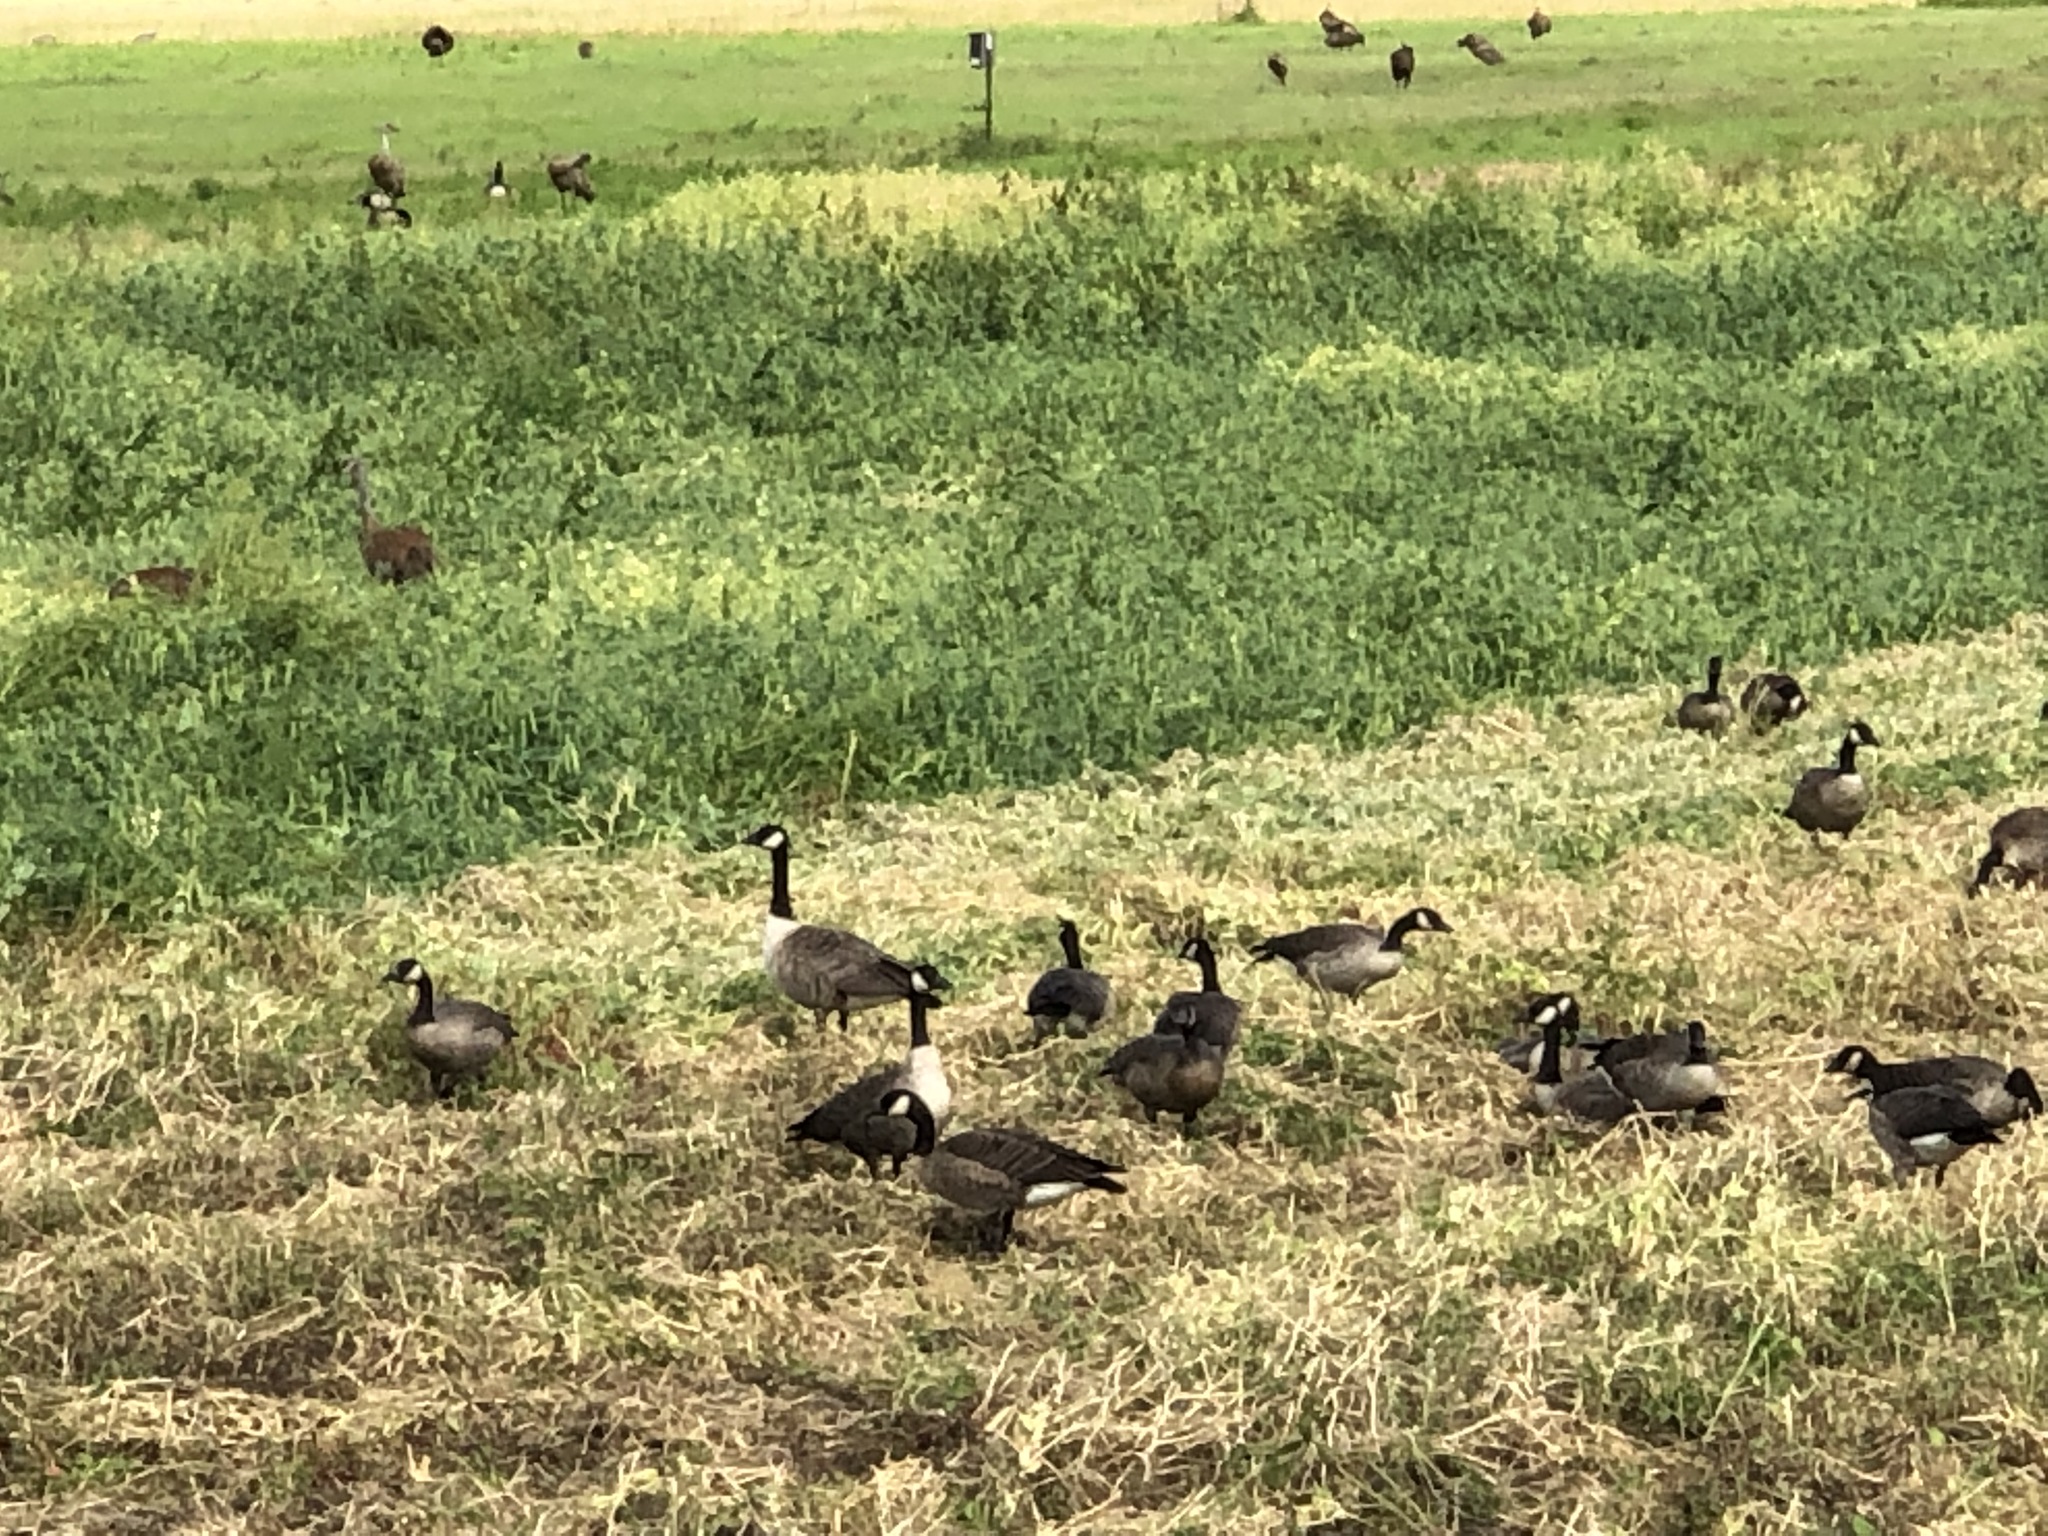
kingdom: Animalia
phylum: Chordata
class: Aves
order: Anseriformes
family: Anatidae
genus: Branta
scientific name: Branta canadensis
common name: Canada goose
